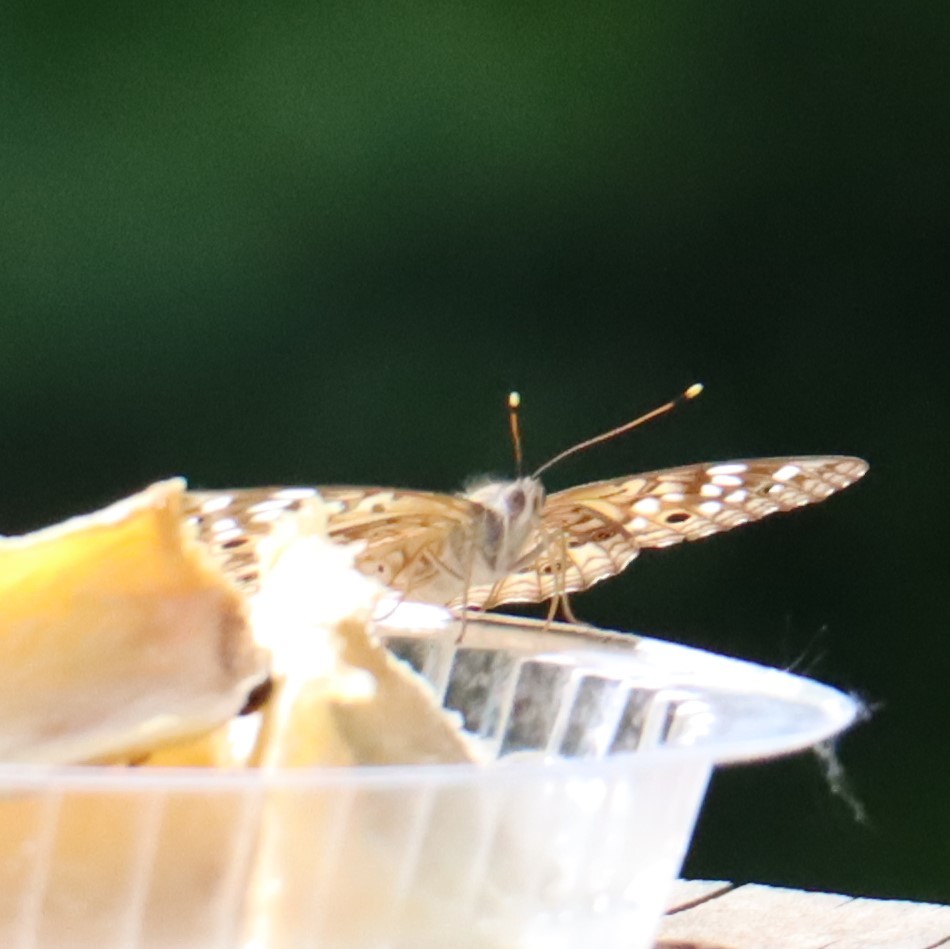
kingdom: Animalia
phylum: Arthropoda
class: Insecta
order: Lepidoptera
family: Nymphalidae
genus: Asterocampa
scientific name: Asterocampa celtis
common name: Hackberry emperor
